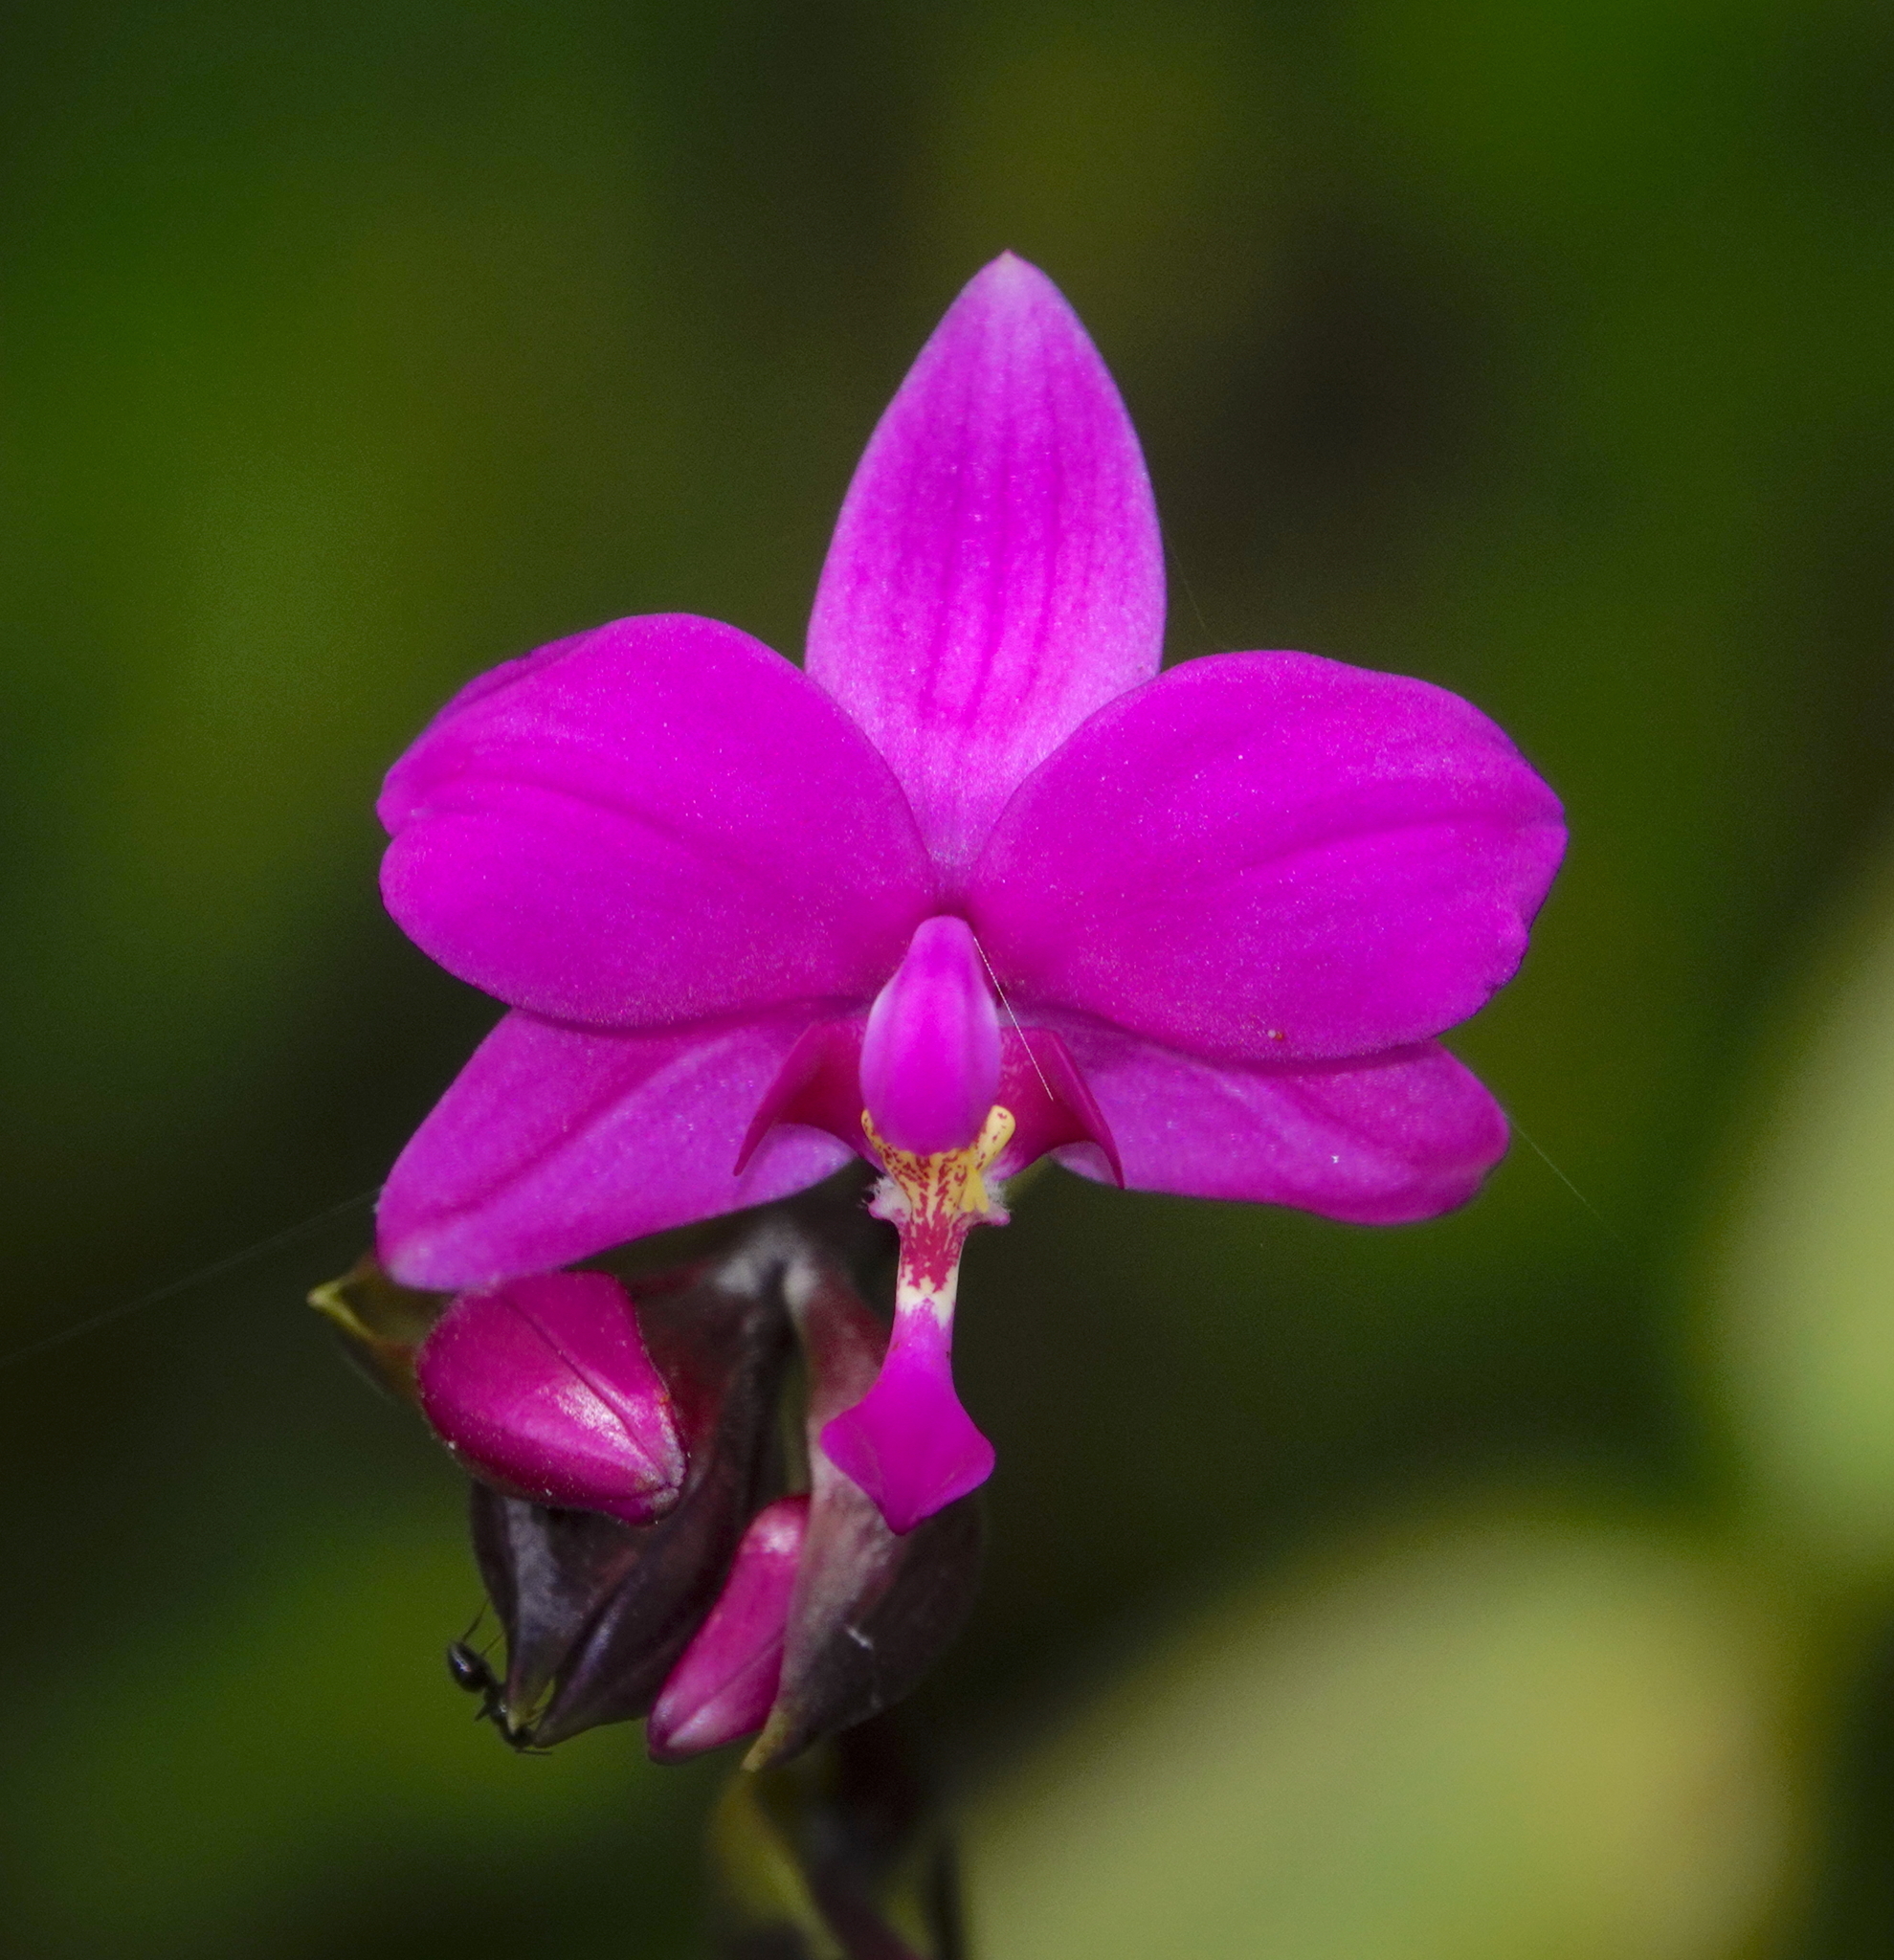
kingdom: Plantae
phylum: Tracheophyta
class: Liliopsida
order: Asparagales
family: Orchidaceae
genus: Spathoglottis
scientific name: Spathoglottis plicata
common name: Philippine ground orchid
